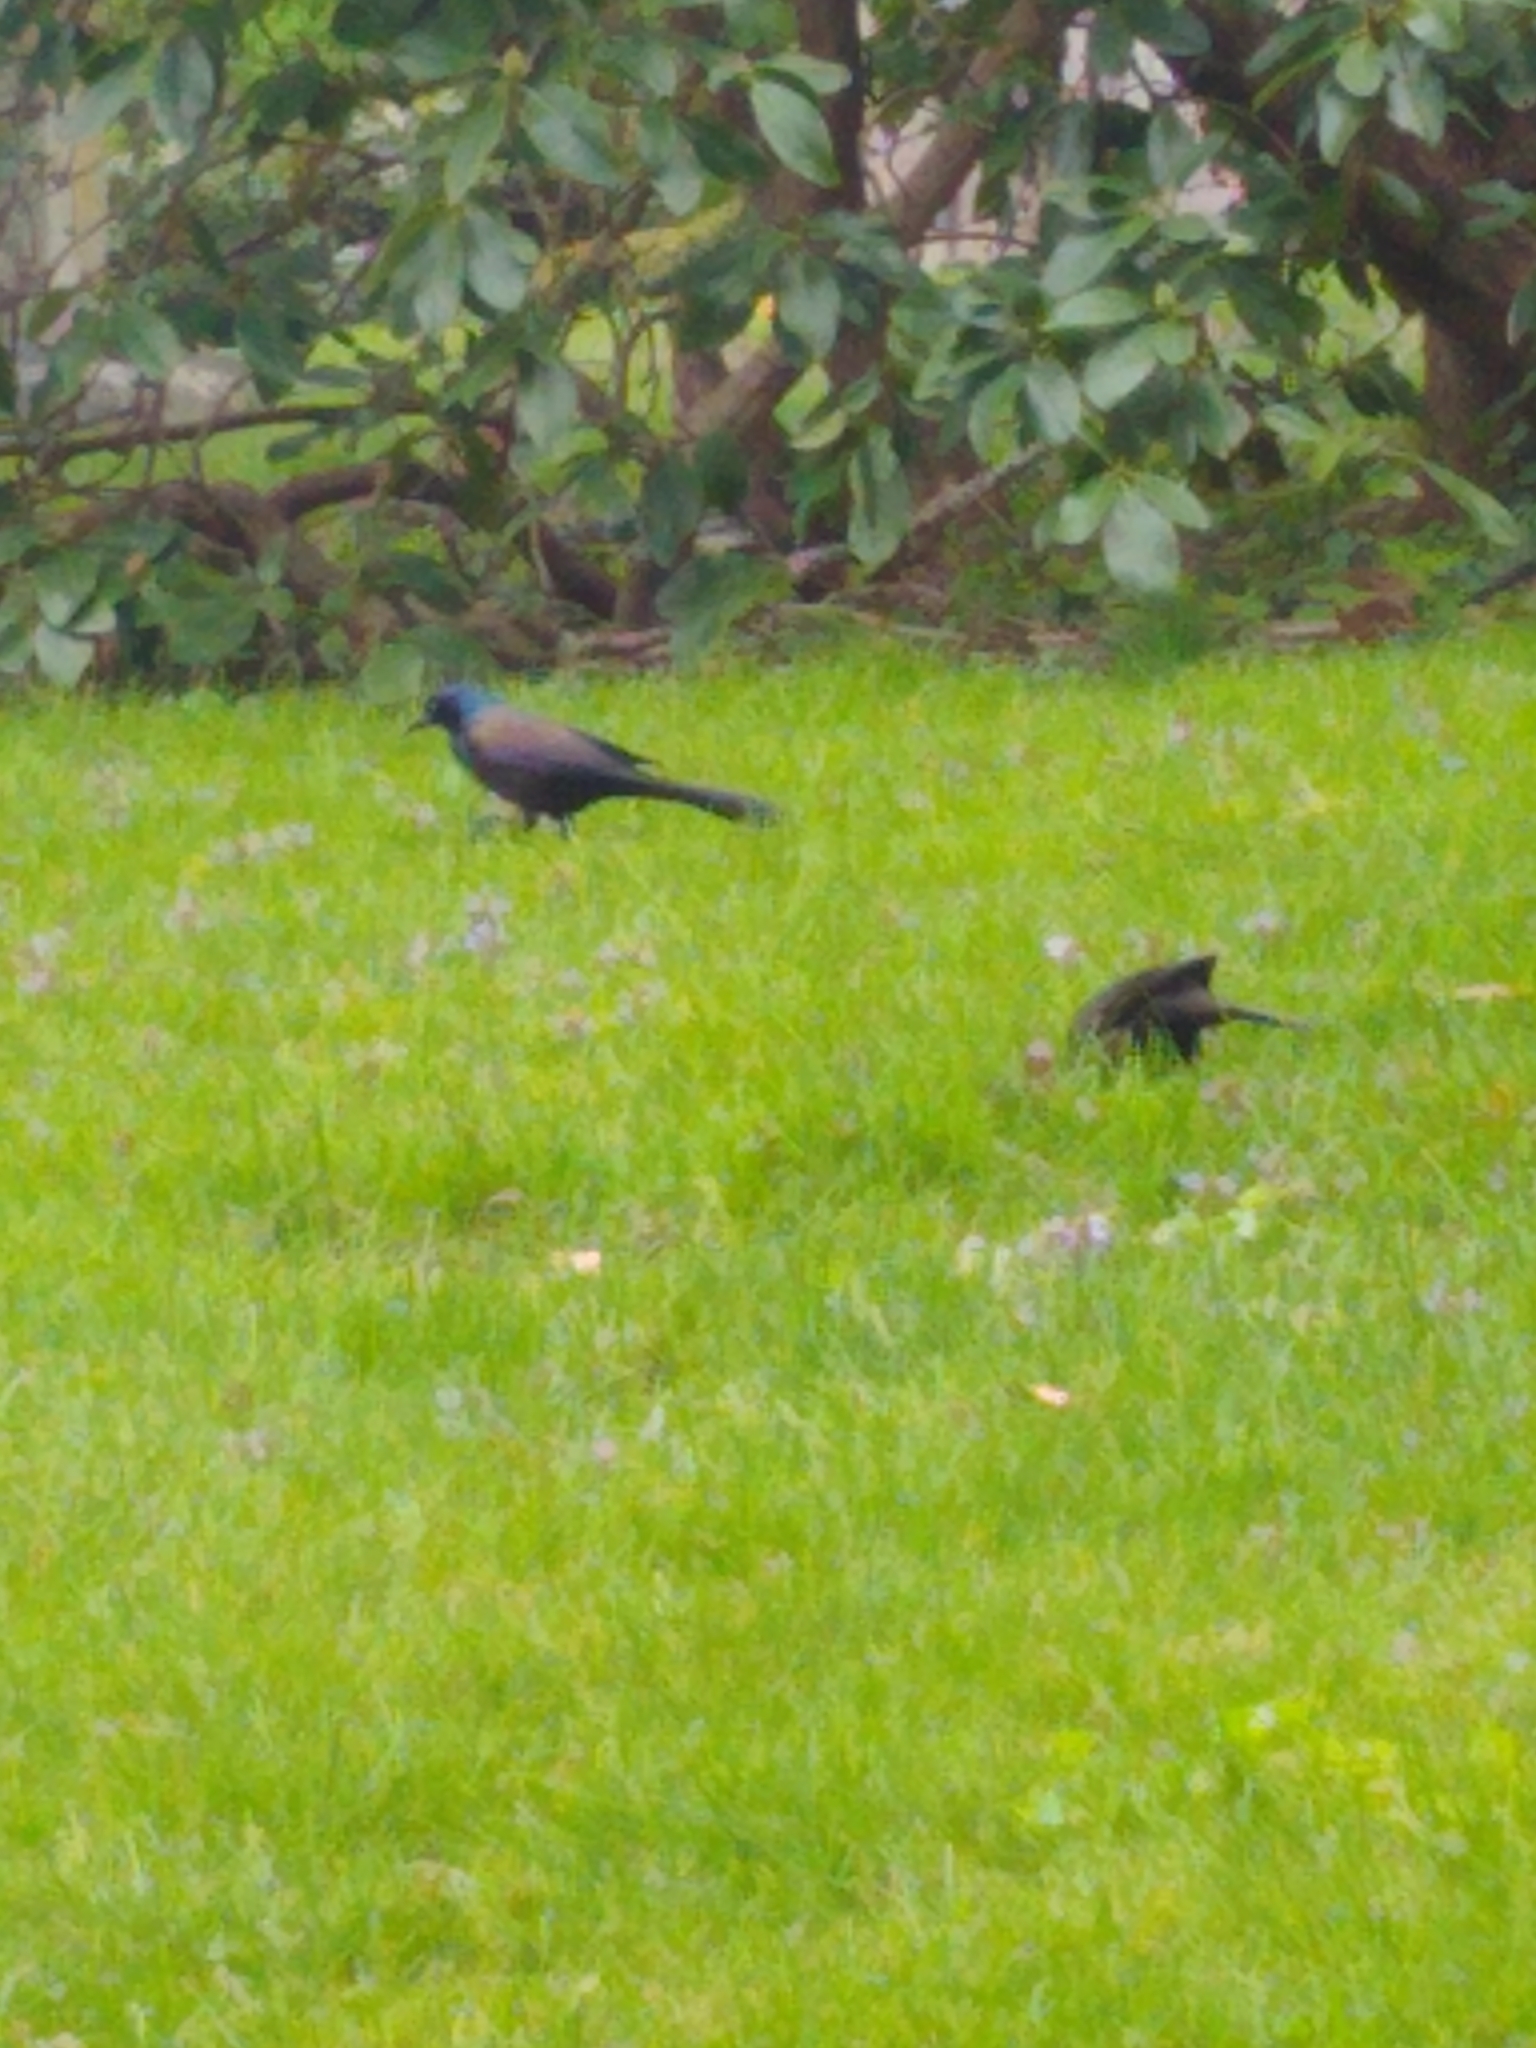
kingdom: Animalia
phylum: Chordata
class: Aves
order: Passeriformes
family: Icteridae
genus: Quiscalus
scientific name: Quiscalus quiscula
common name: Common grackle
